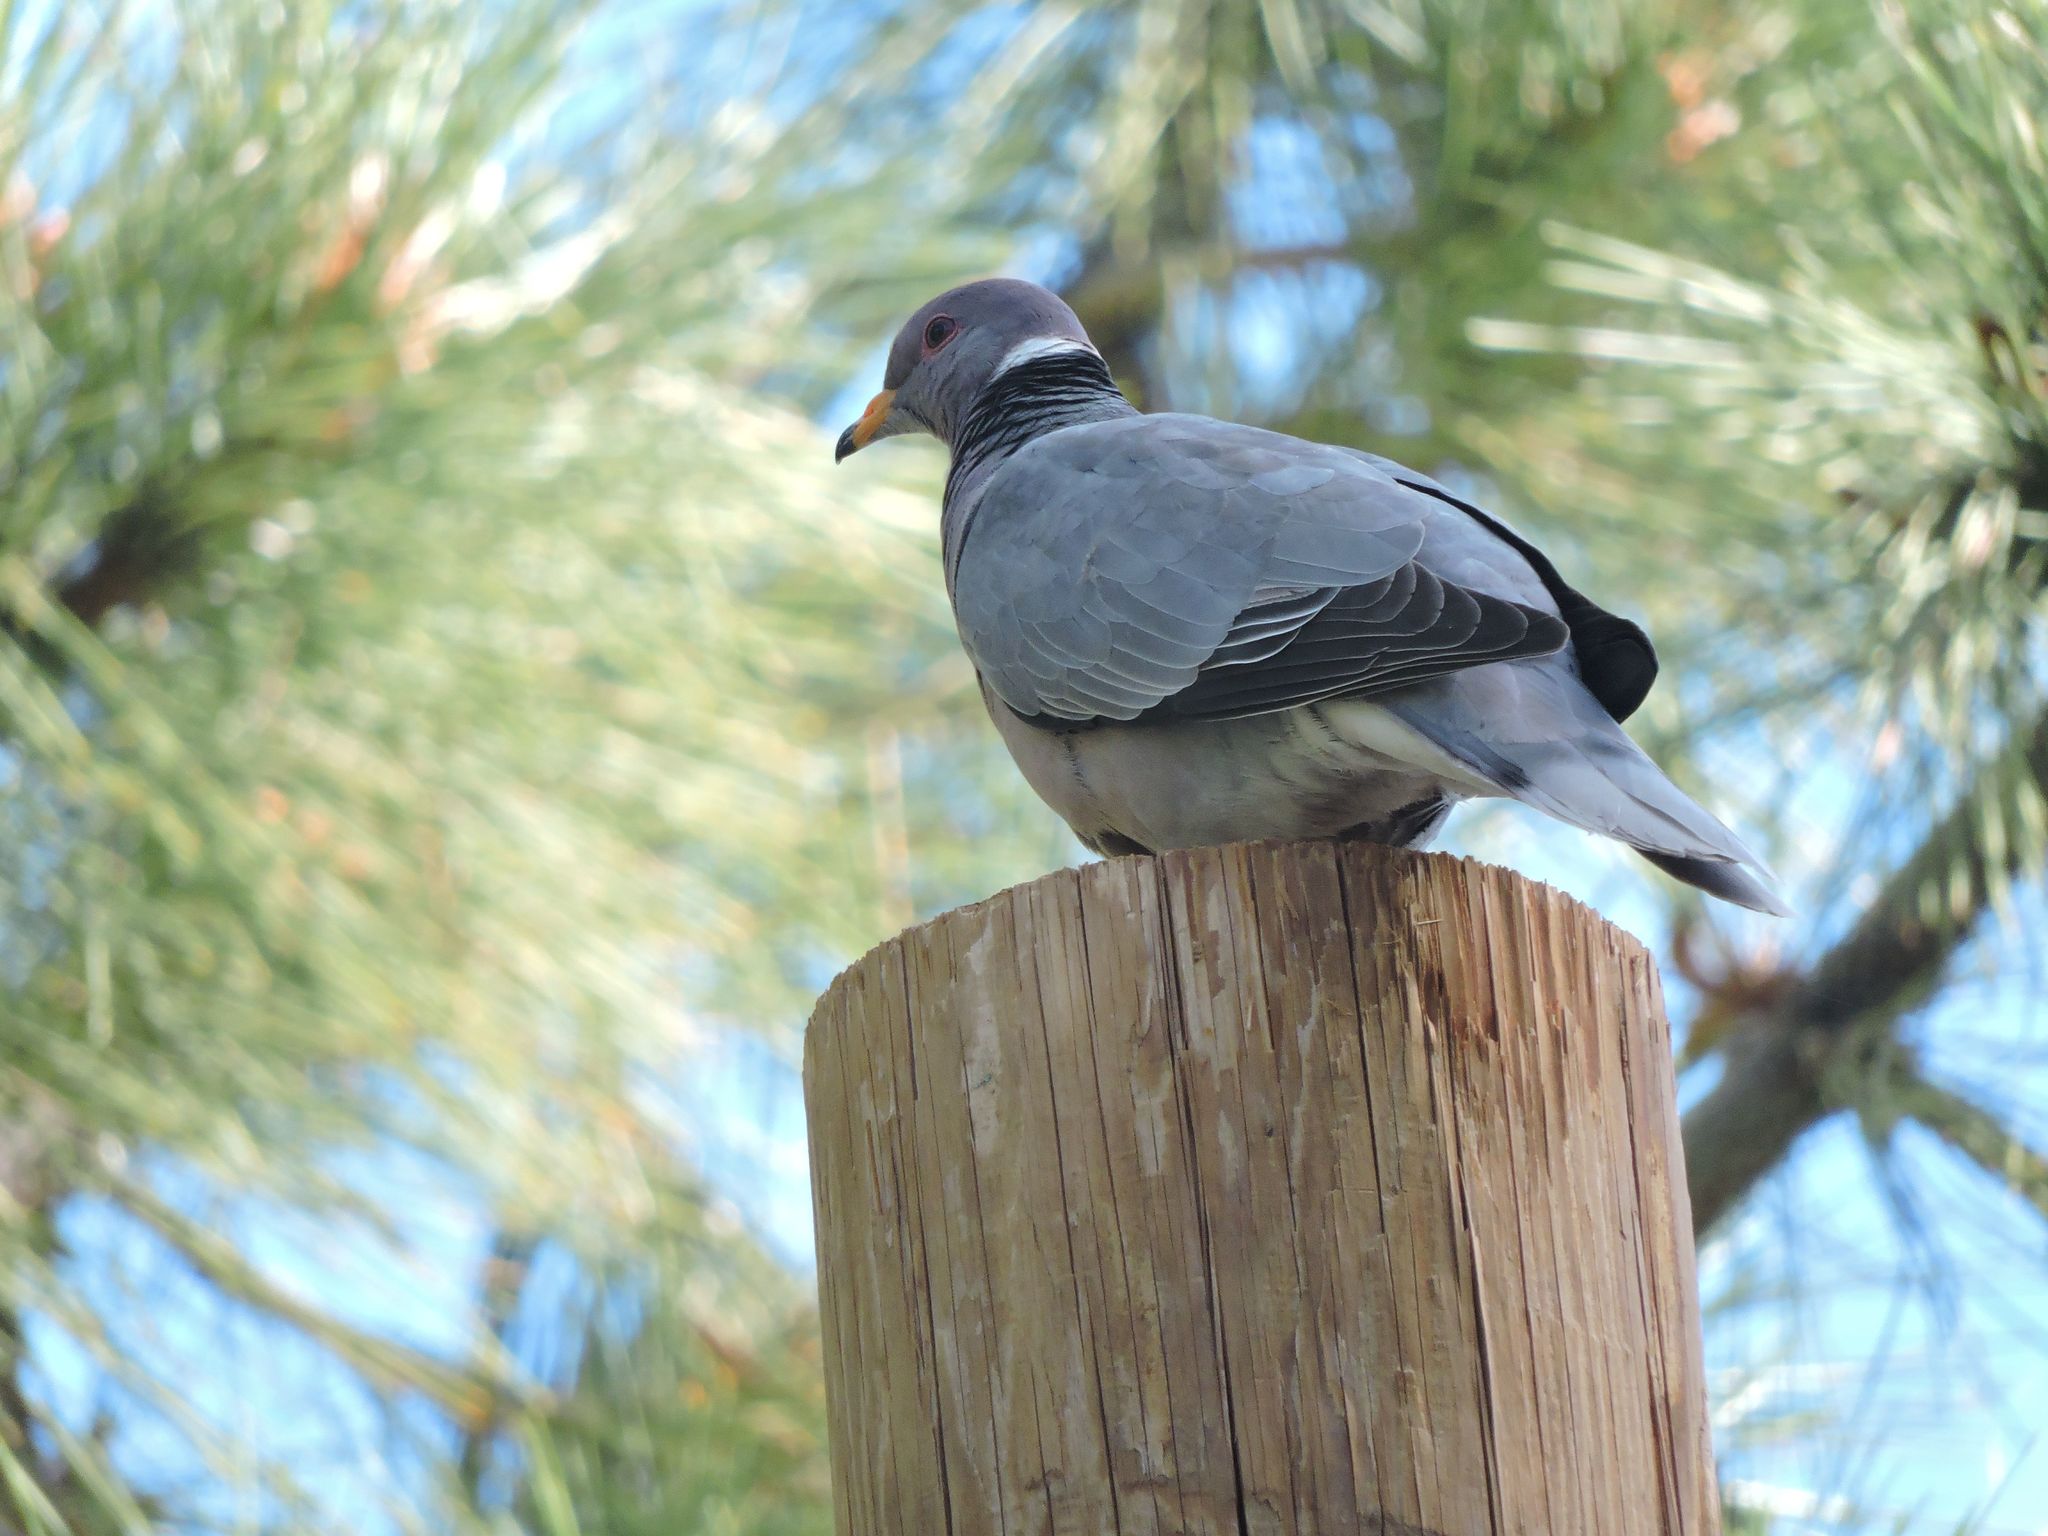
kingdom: Animalia
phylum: Chordata
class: Aves
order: Columbiformes
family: Columbidae
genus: Patagioenas
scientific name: Patagioenas fasciata
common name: Band-tailed pigeon
